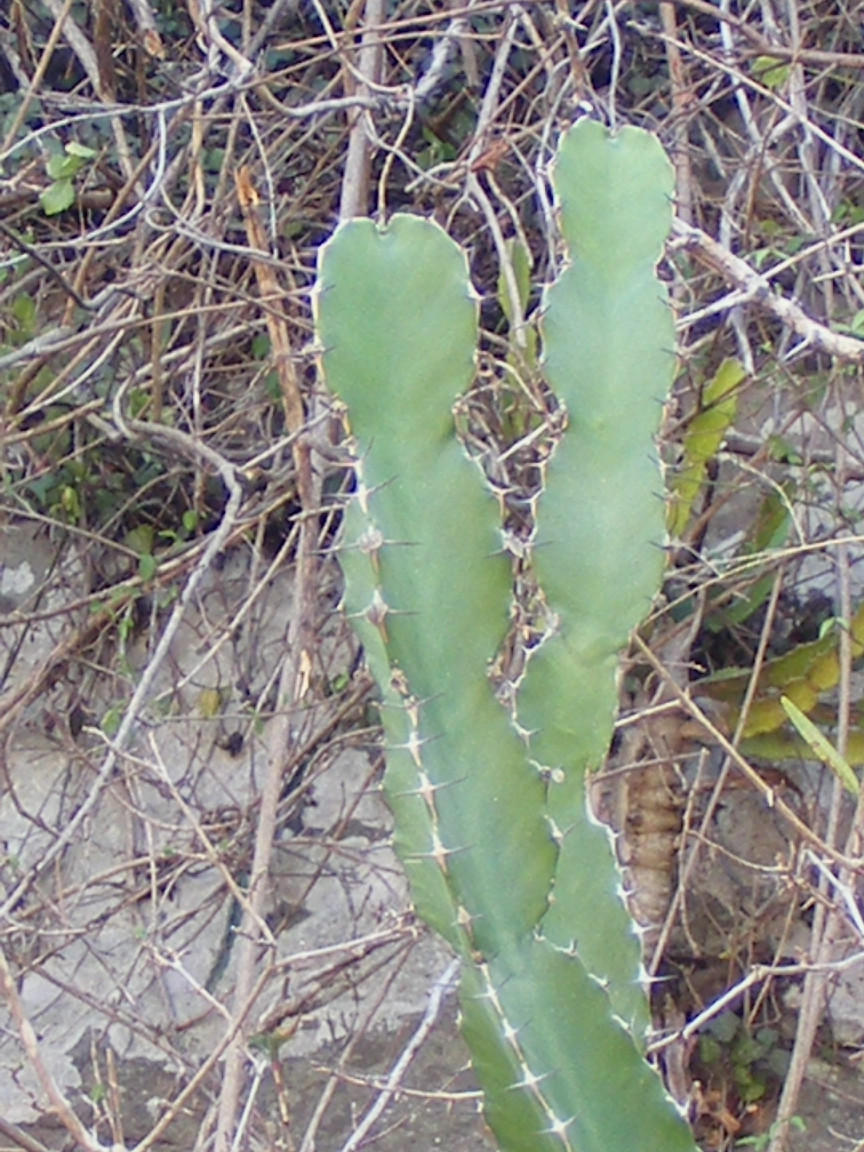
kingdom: Plantae
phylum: Tracheophyta
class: Magnoliopsida
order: Malpighiales
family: Euphorbiaceae
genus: Euphorbia
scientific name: Euphorbia triangularis
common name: Chandelier tree
